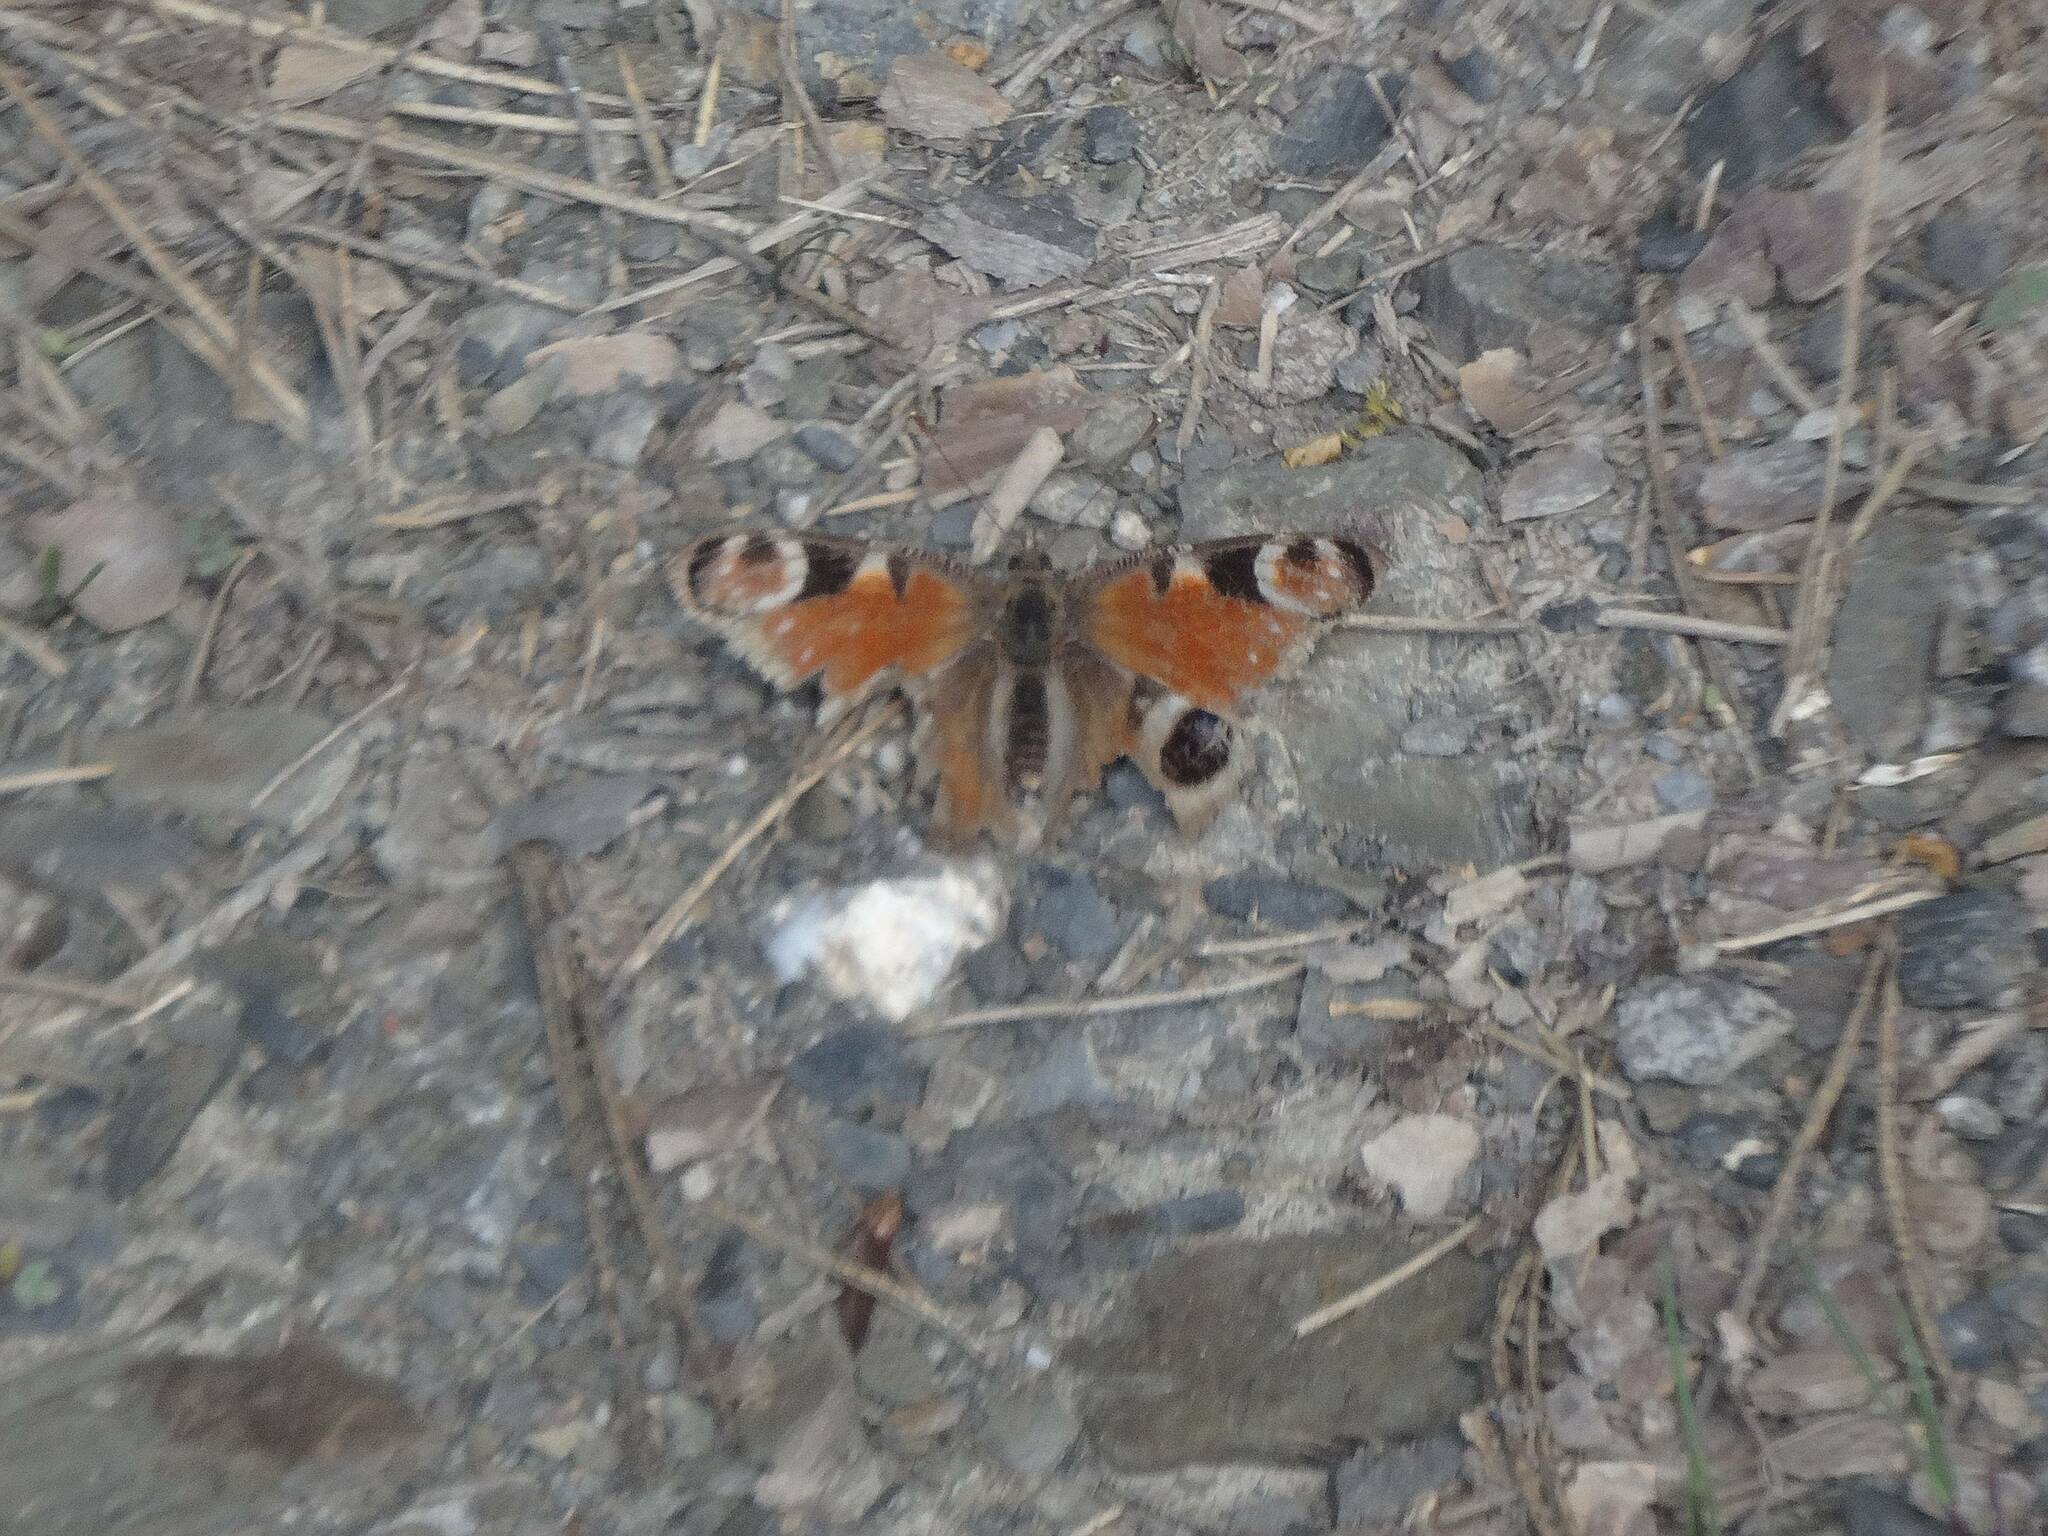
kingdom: Animalia
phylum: Arthropoda
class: Insecta
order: Lepidoptera
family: Nymphalidae
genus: Aglais
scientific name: Aglais io
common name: Peacock
